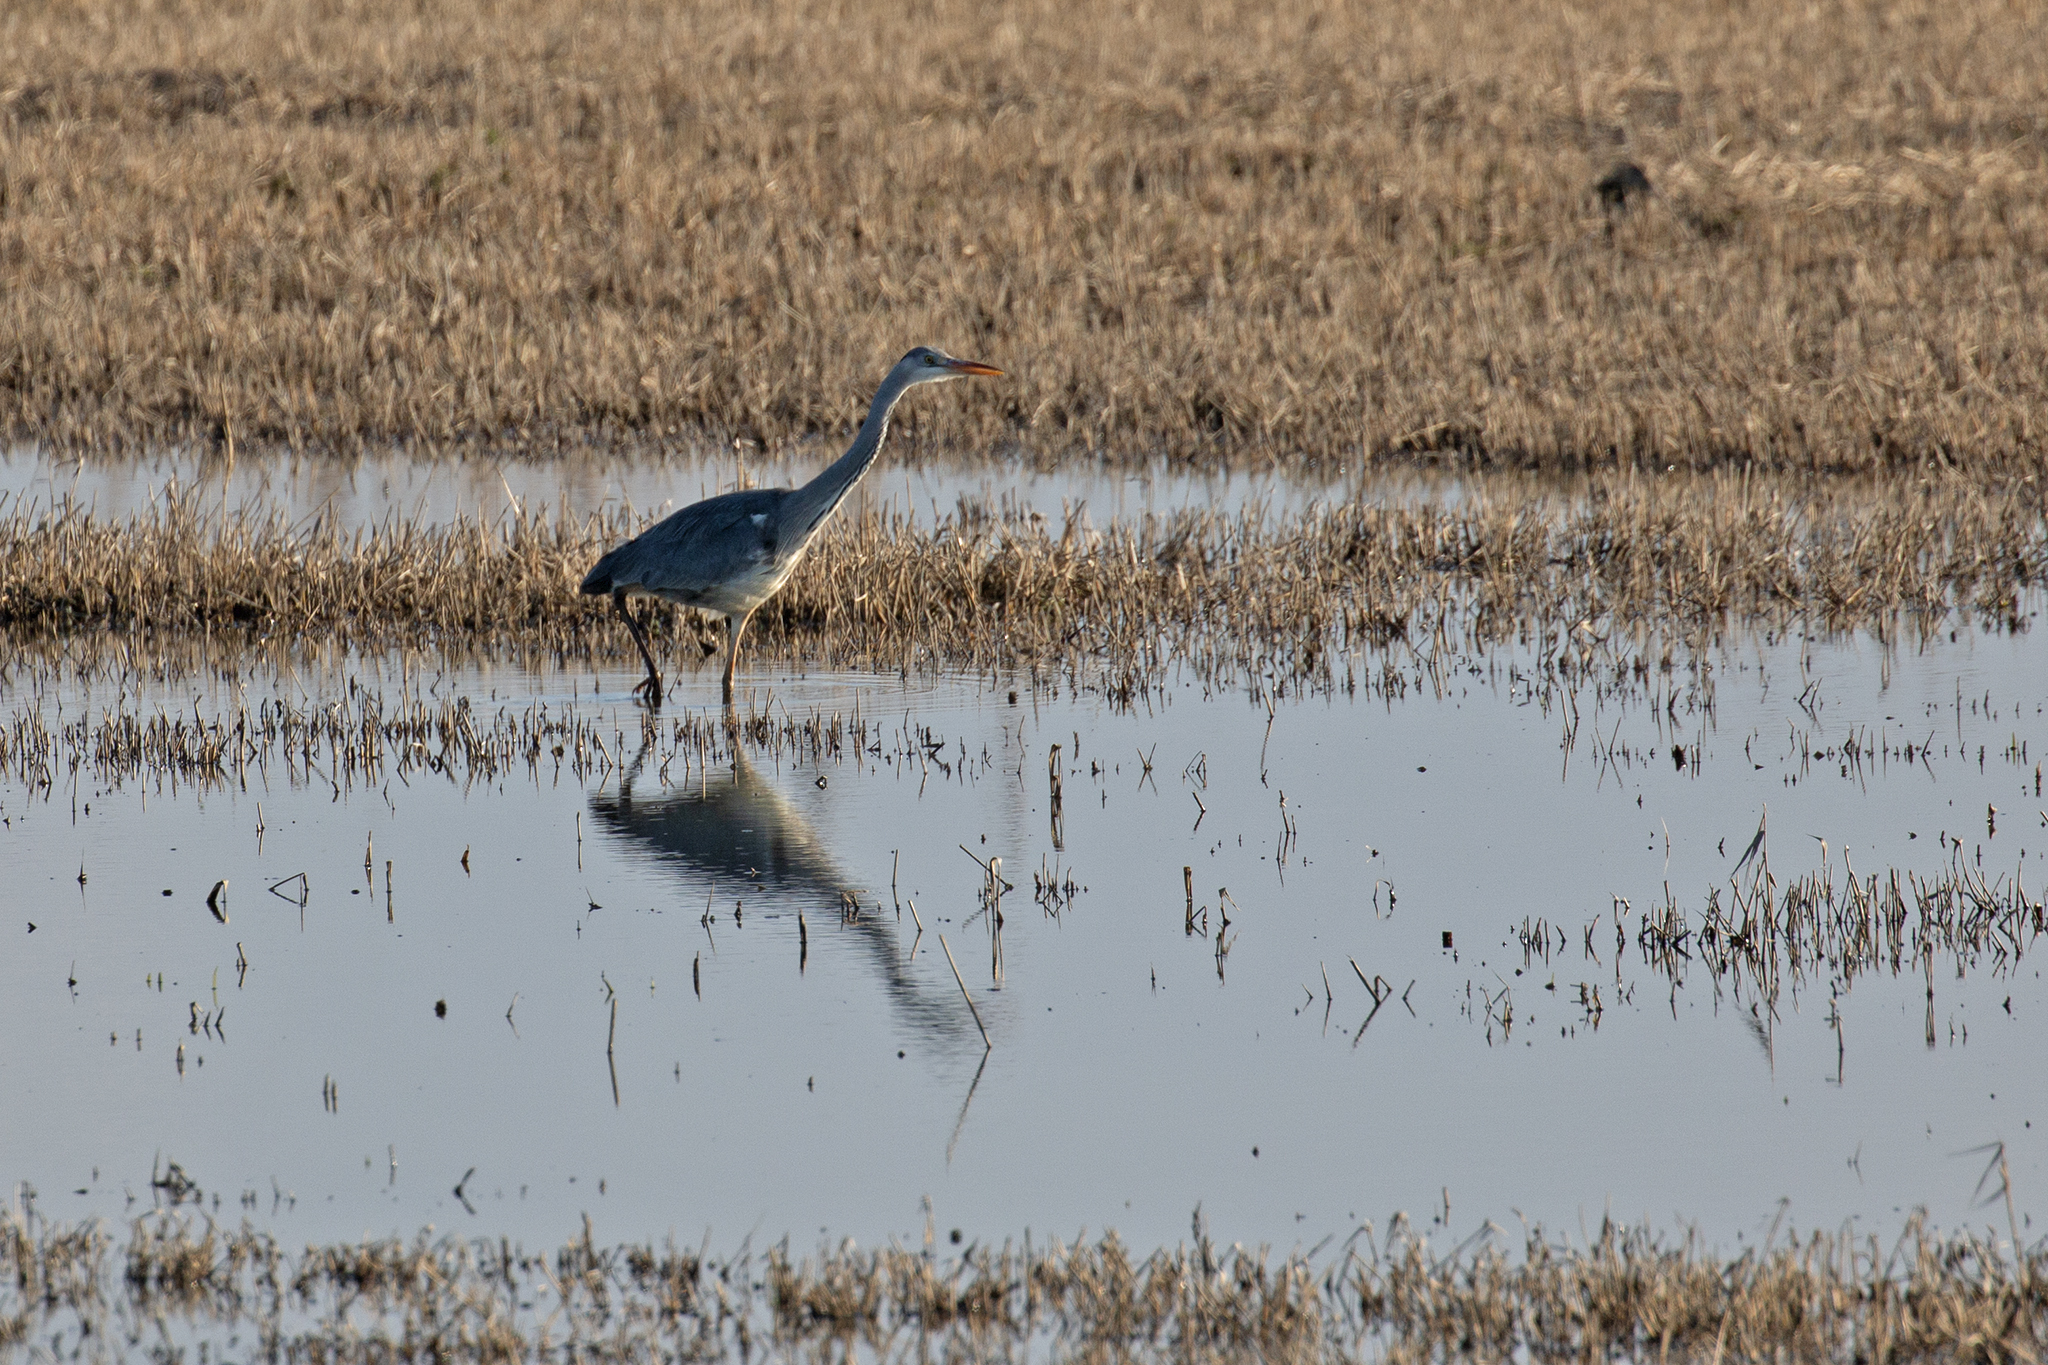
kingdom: Animalia
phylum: Chordata
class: Aves
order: Pelecaniformes
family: Ardeidae
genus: Ardea
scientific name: Ardea cinerea
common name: Grey heron
